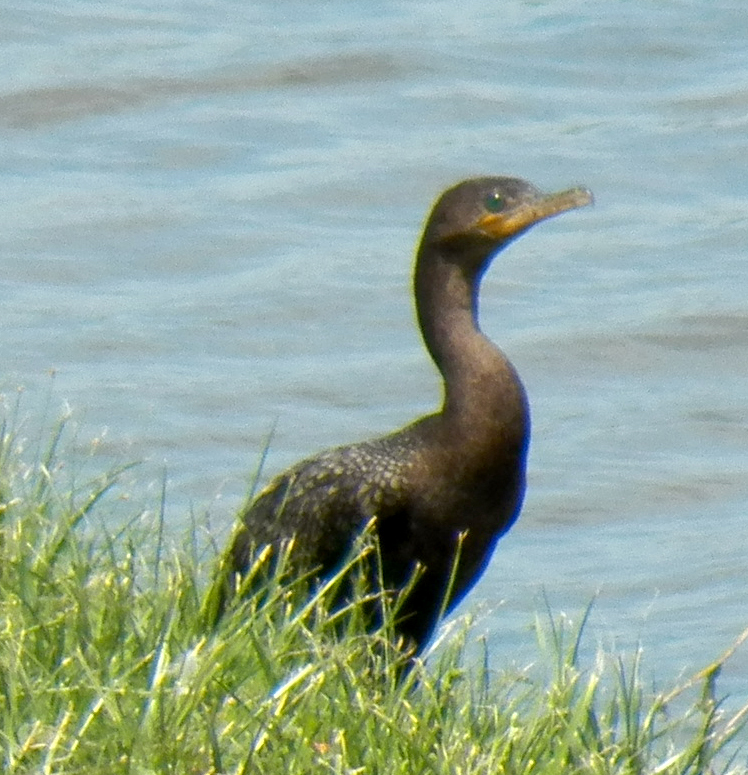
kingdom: Animalia
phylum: Chordata
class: Aves
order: Suliformes
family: Phalacrocoracidae
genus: Phalacrocorax
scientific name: Phalacrocorax brasilianus
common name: Neotropic cormorant
